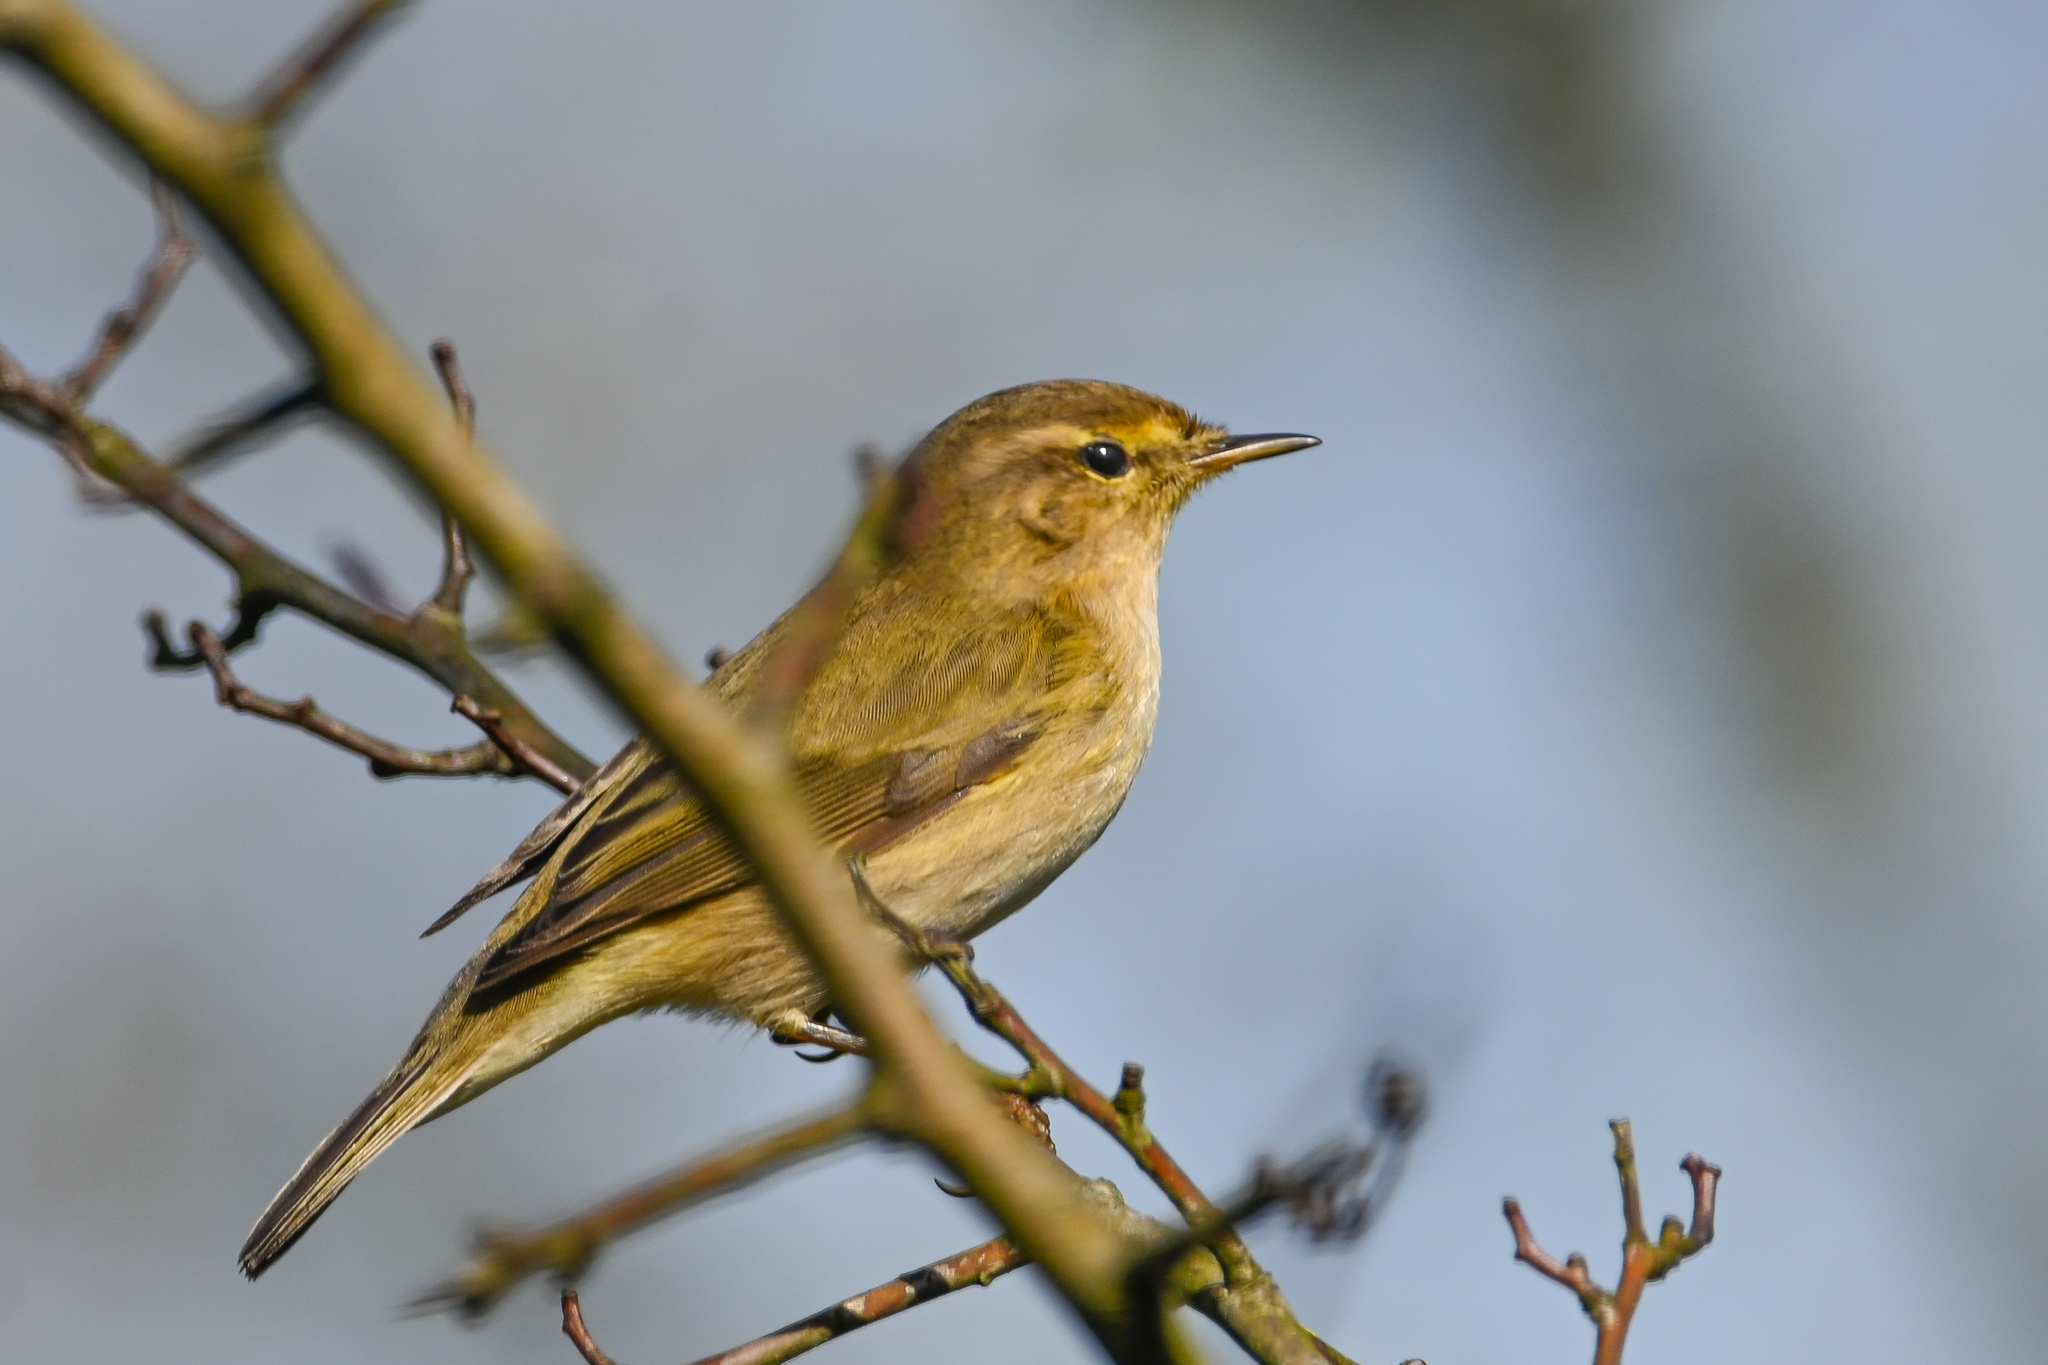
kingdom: Animalia
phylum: Chordata
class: Aves
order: Passeriformes
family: Phylloscopidae
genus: Phylloscopus
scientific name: Phylloscopus collybita
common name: Common chiffchaff
